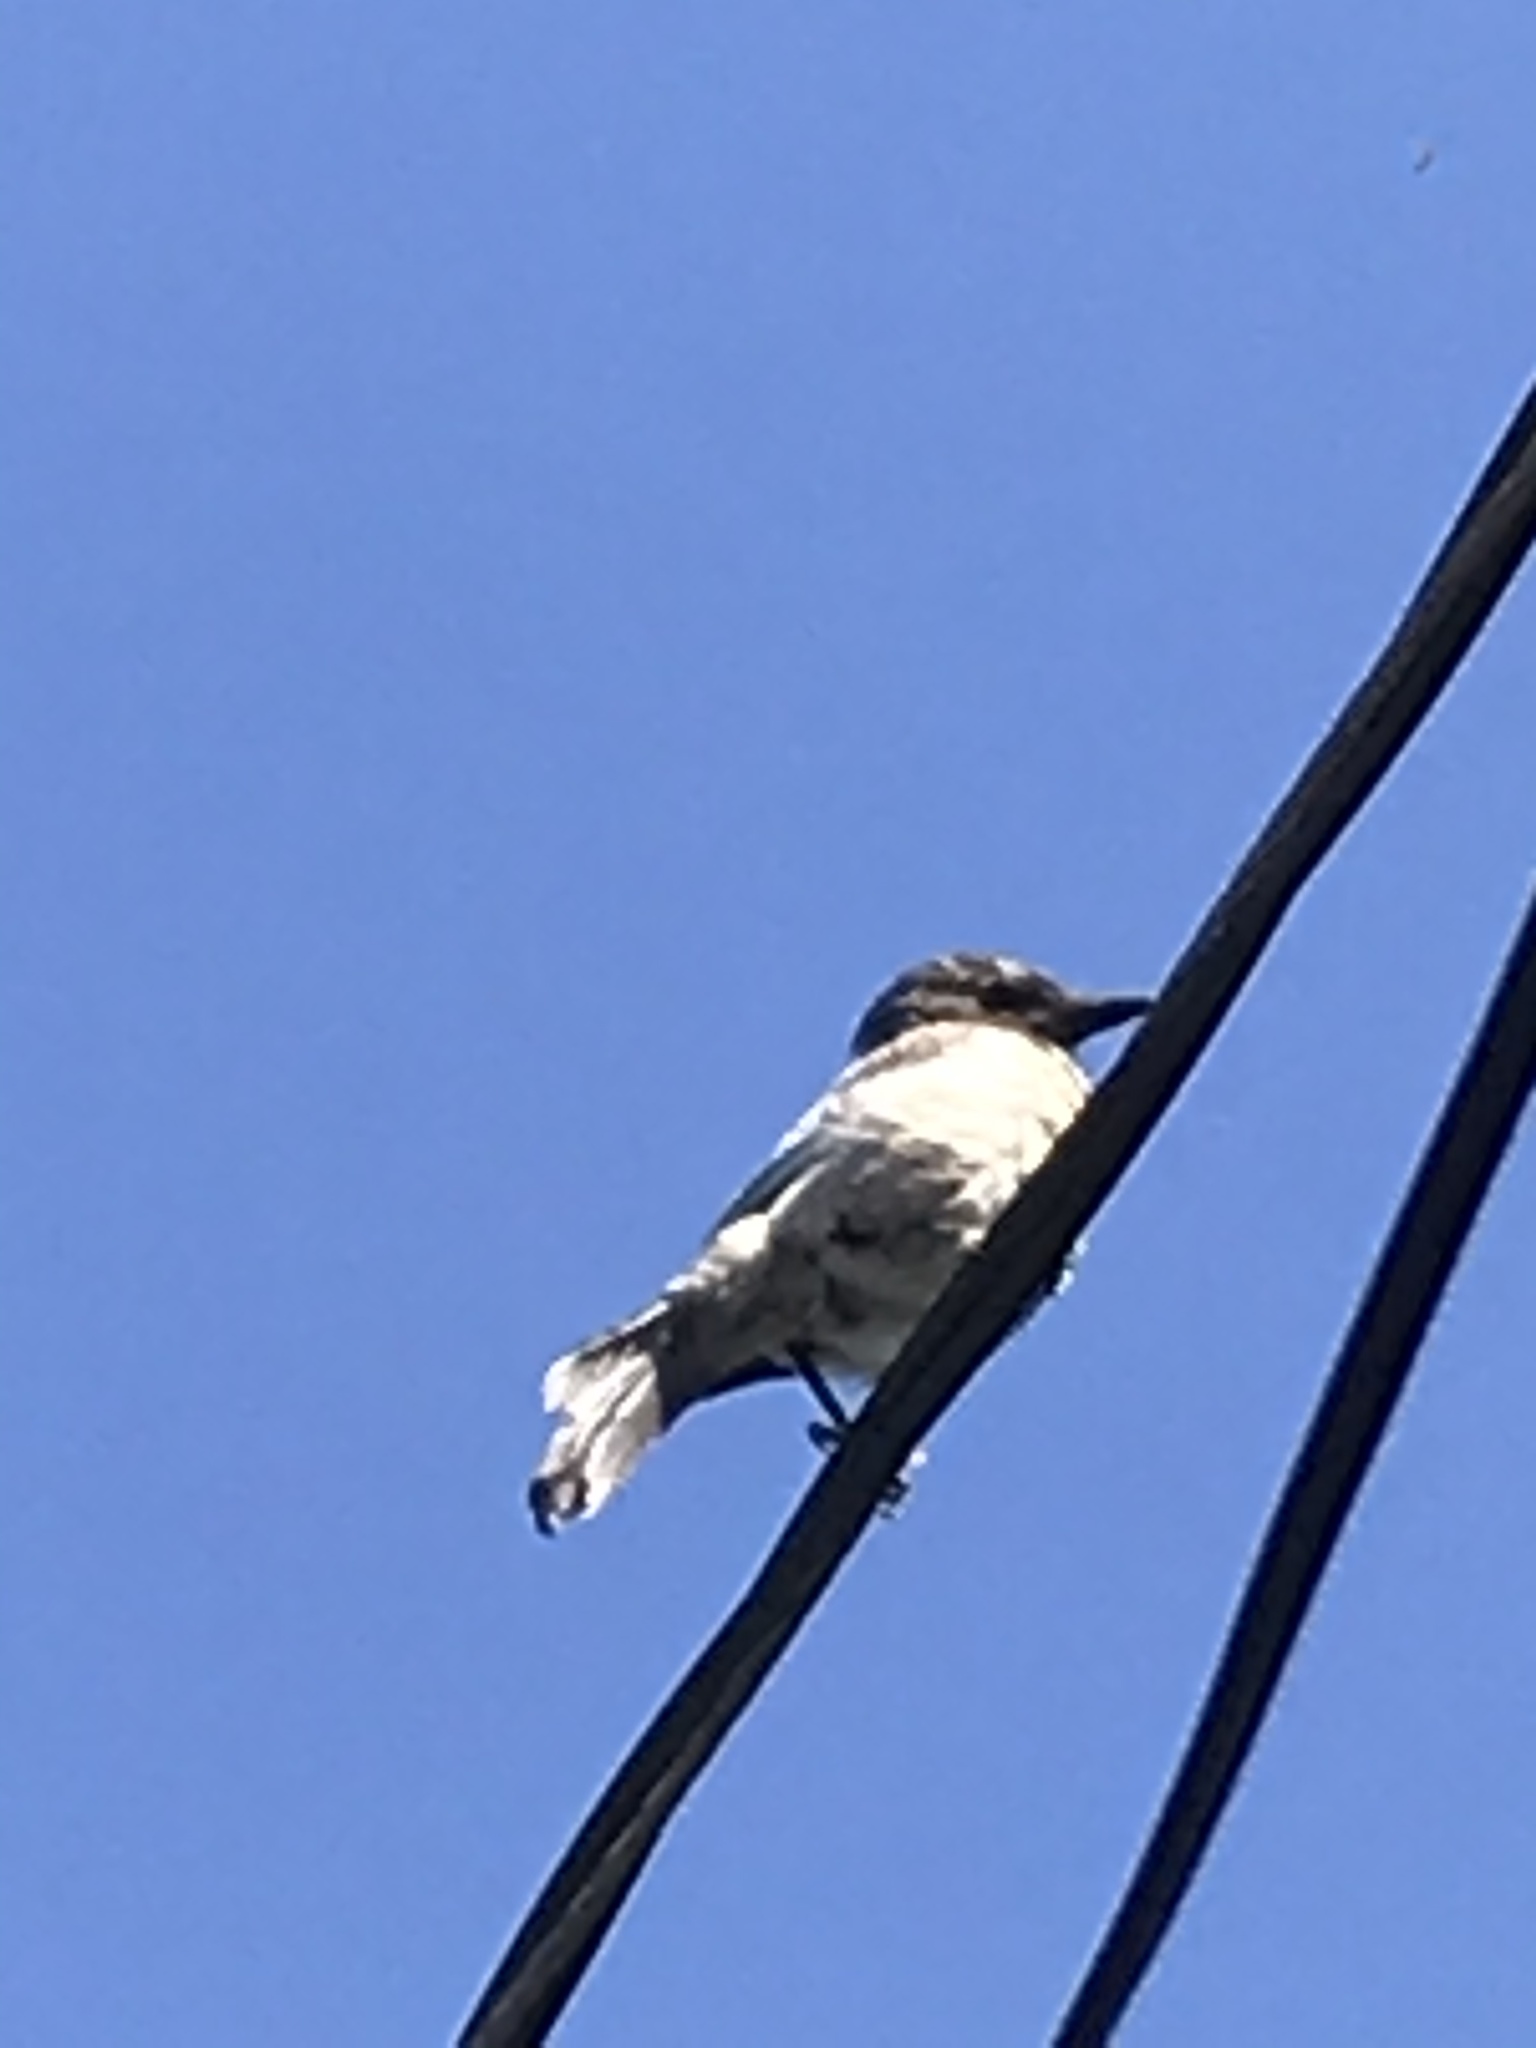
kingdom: Animalia
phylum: Chordata
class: Aves
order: Passeriformes
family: Corvidae
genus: Aphelocoma
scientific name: Aphelocoma californica
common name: California scrub-jay
